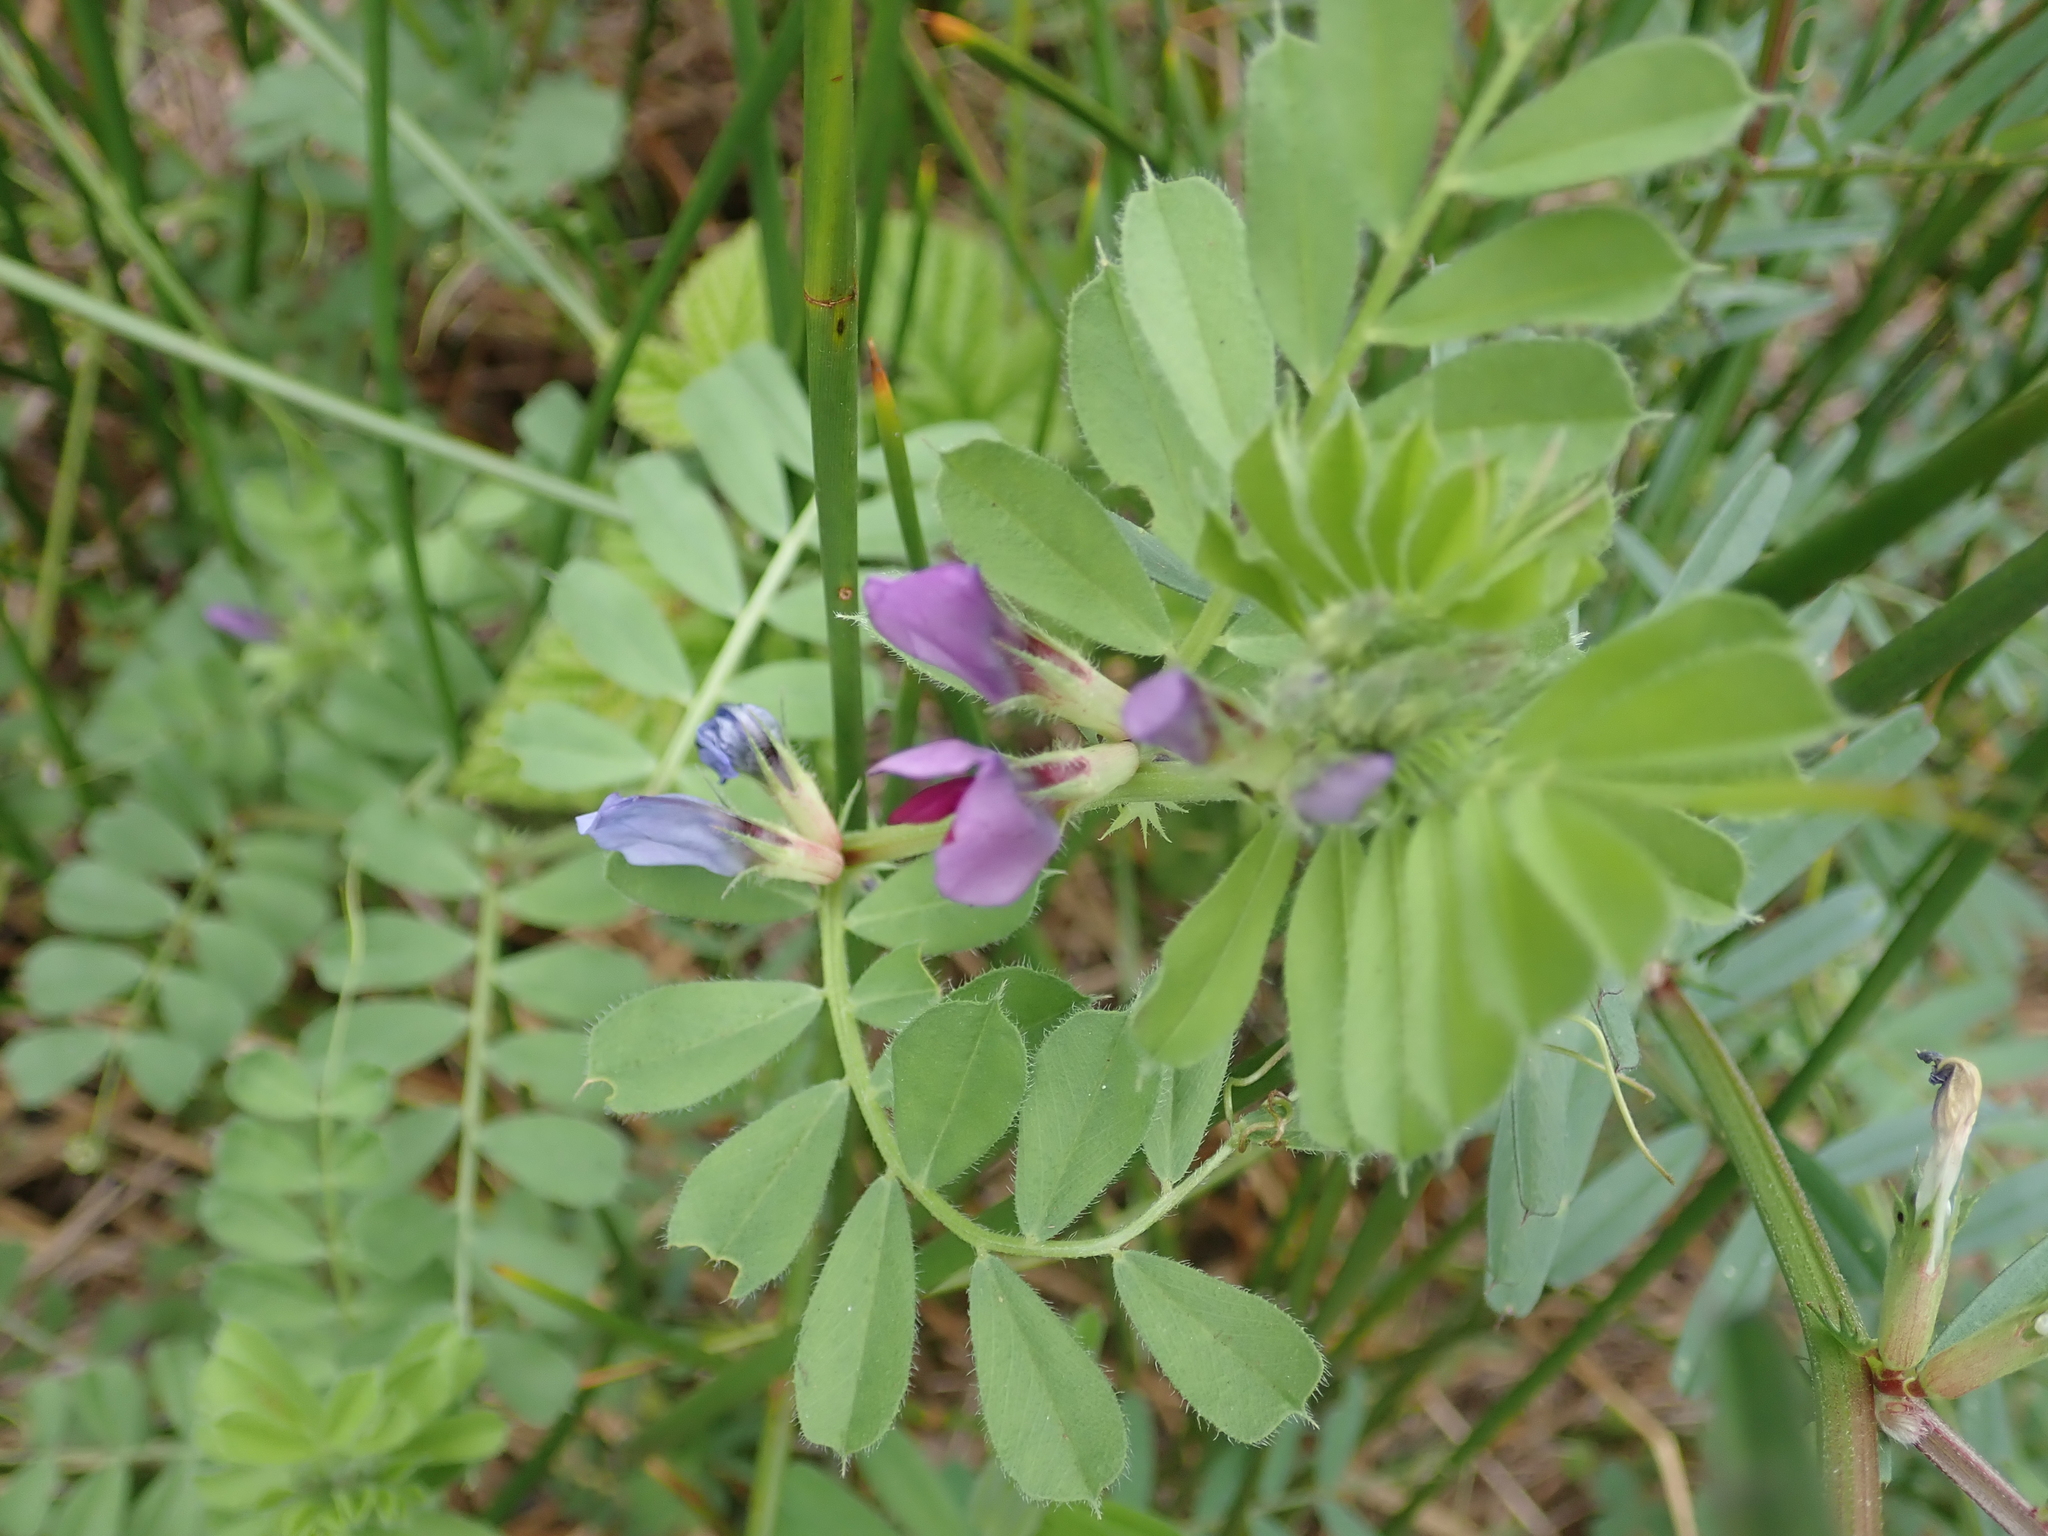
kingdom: Plantae
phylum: Tracheophyta
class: Magnoliopsida
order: Fabales
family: Fabaceae
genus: Vicia
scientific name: Vicia sativa
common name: Garden vetch
